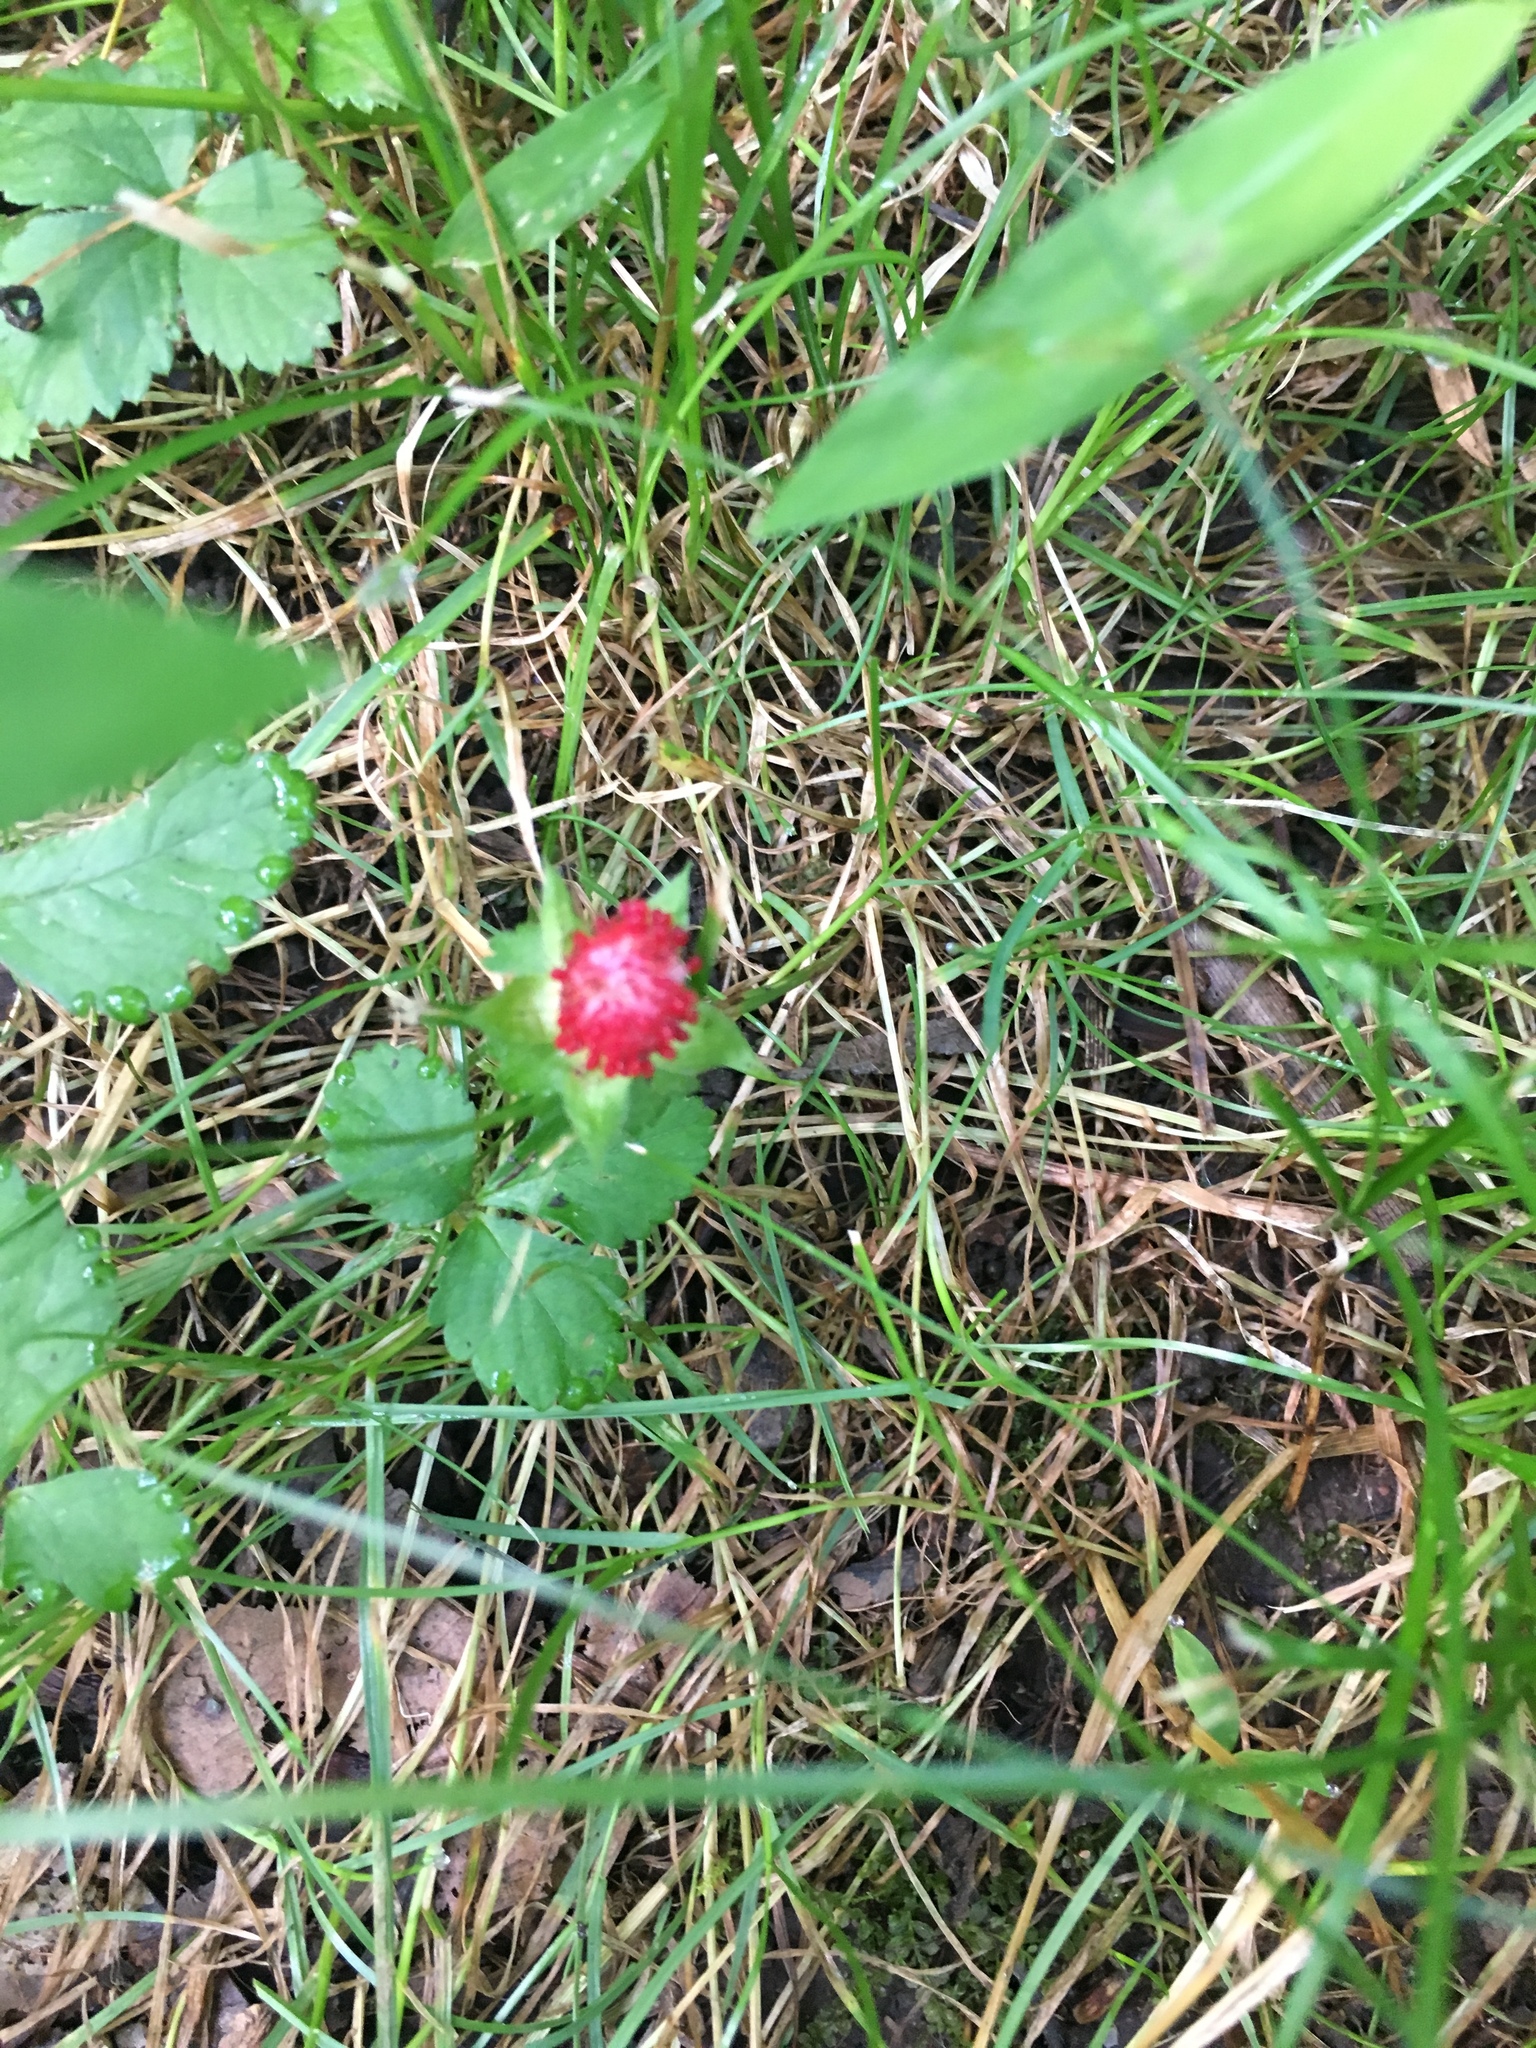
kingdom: Plantae
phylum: Tracheophyta
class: Magnoliopsida
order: Rosales
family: Rosaceae
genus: Potentilla
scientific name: Potentilla indica
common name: Yellow-flowered strawberry
